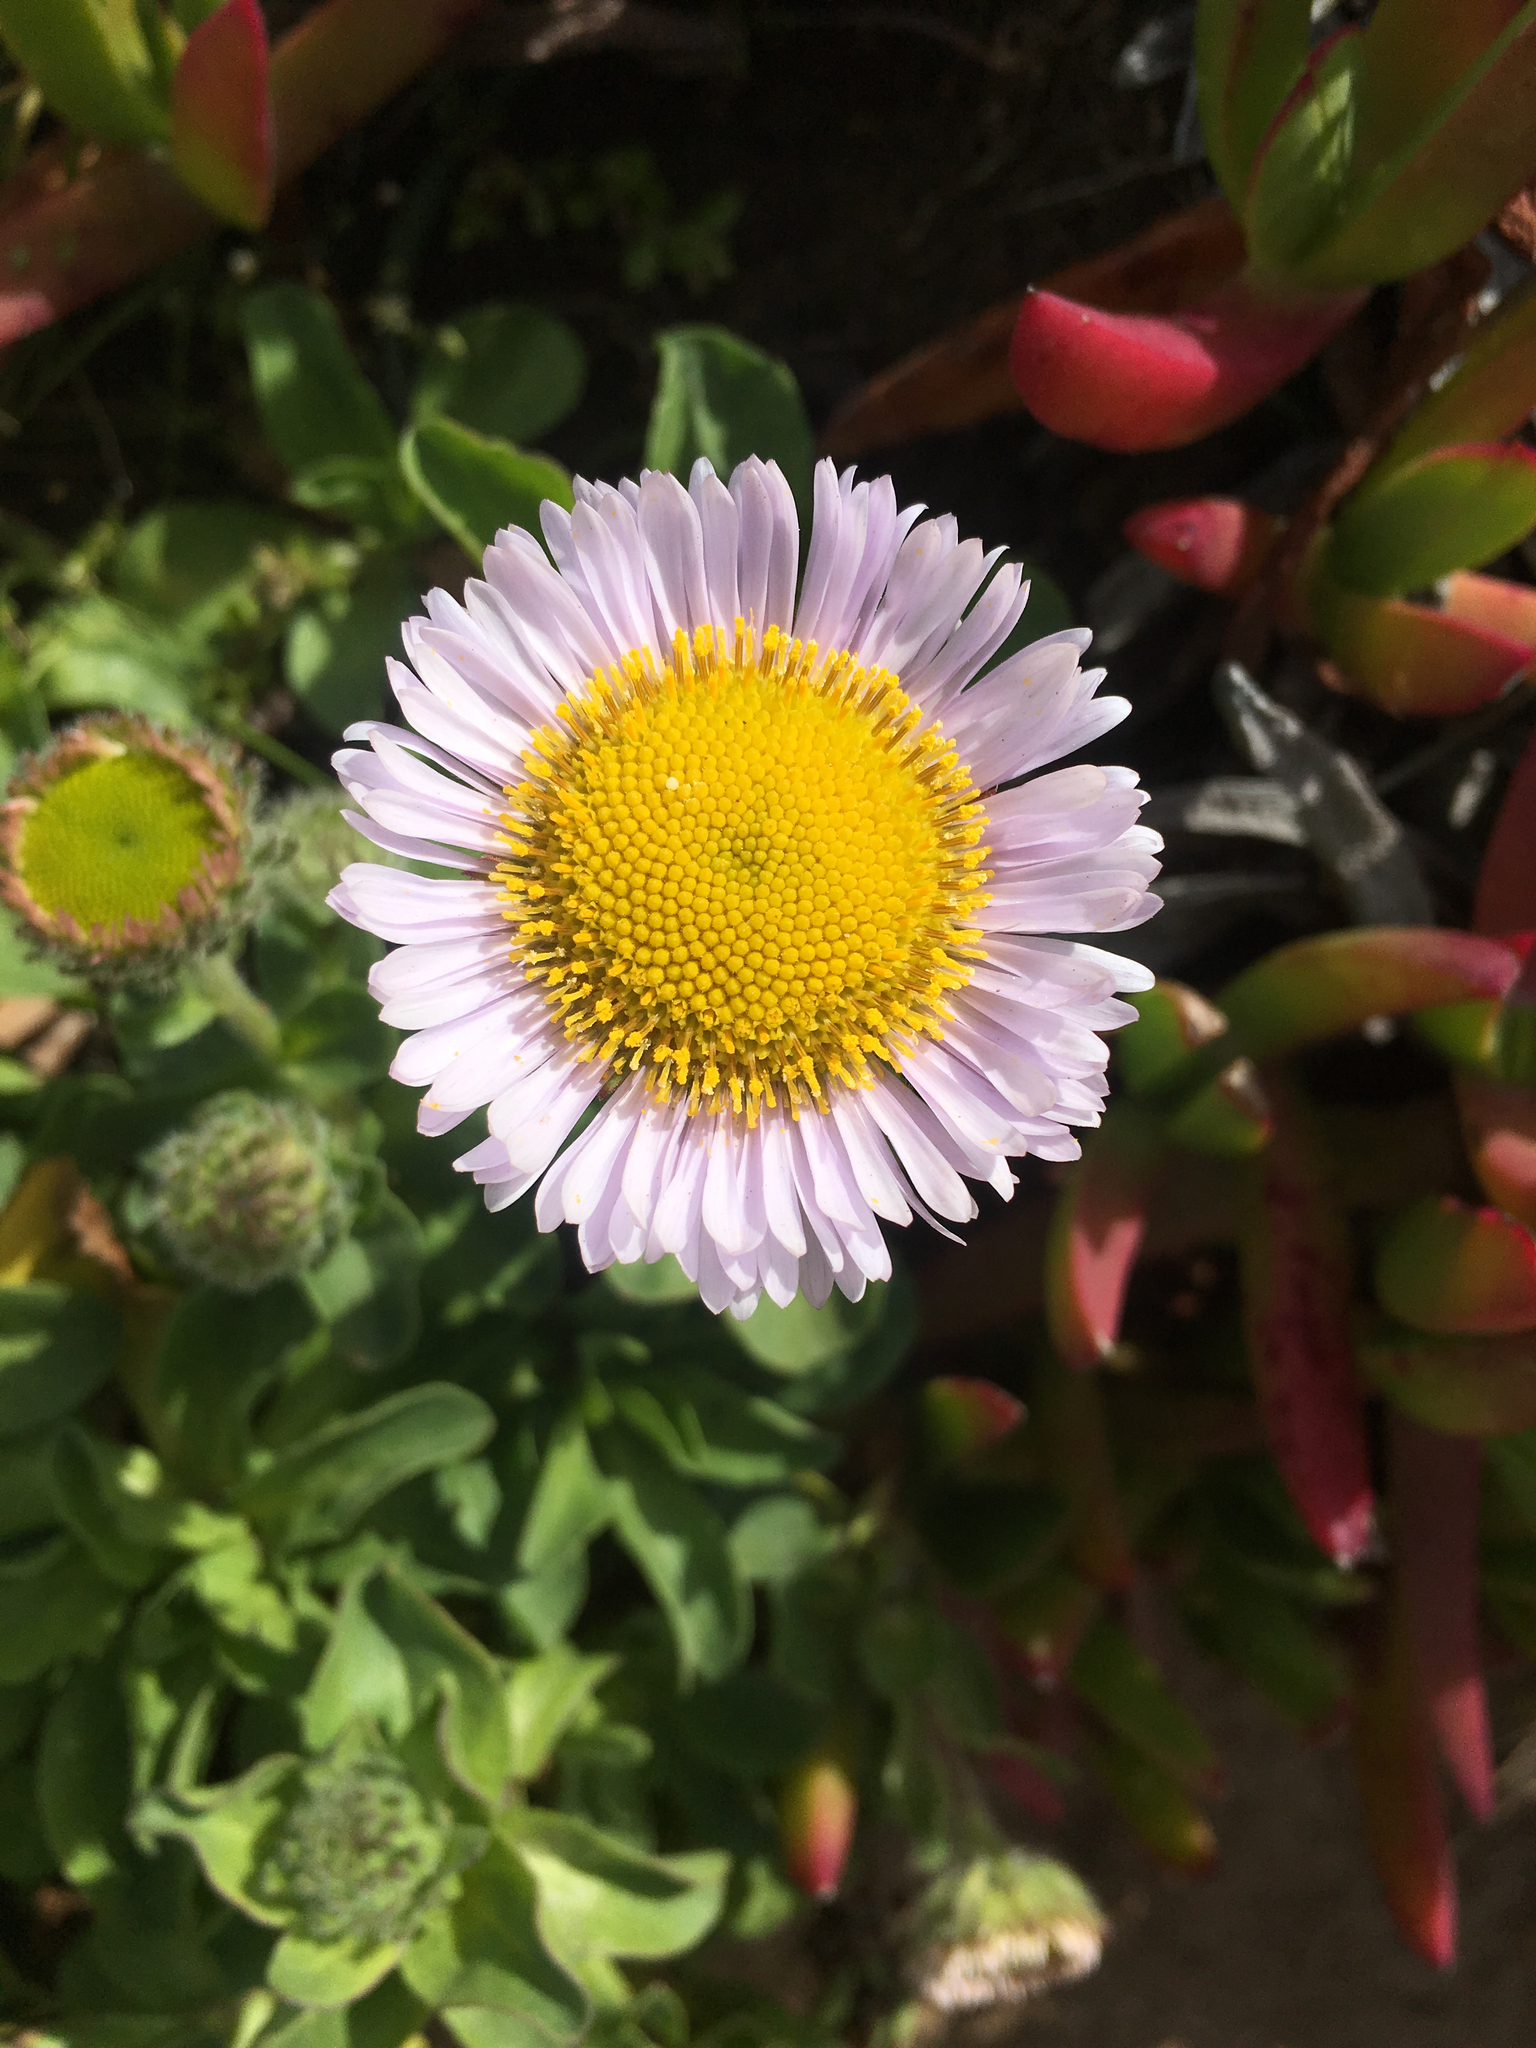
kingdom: Plantae
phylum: Tracheophyta
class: Magnoliopsida
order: Asterales
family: Asteraceae
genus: Erigeron
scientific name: Erigeron glaucus
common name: Seaside daisy
